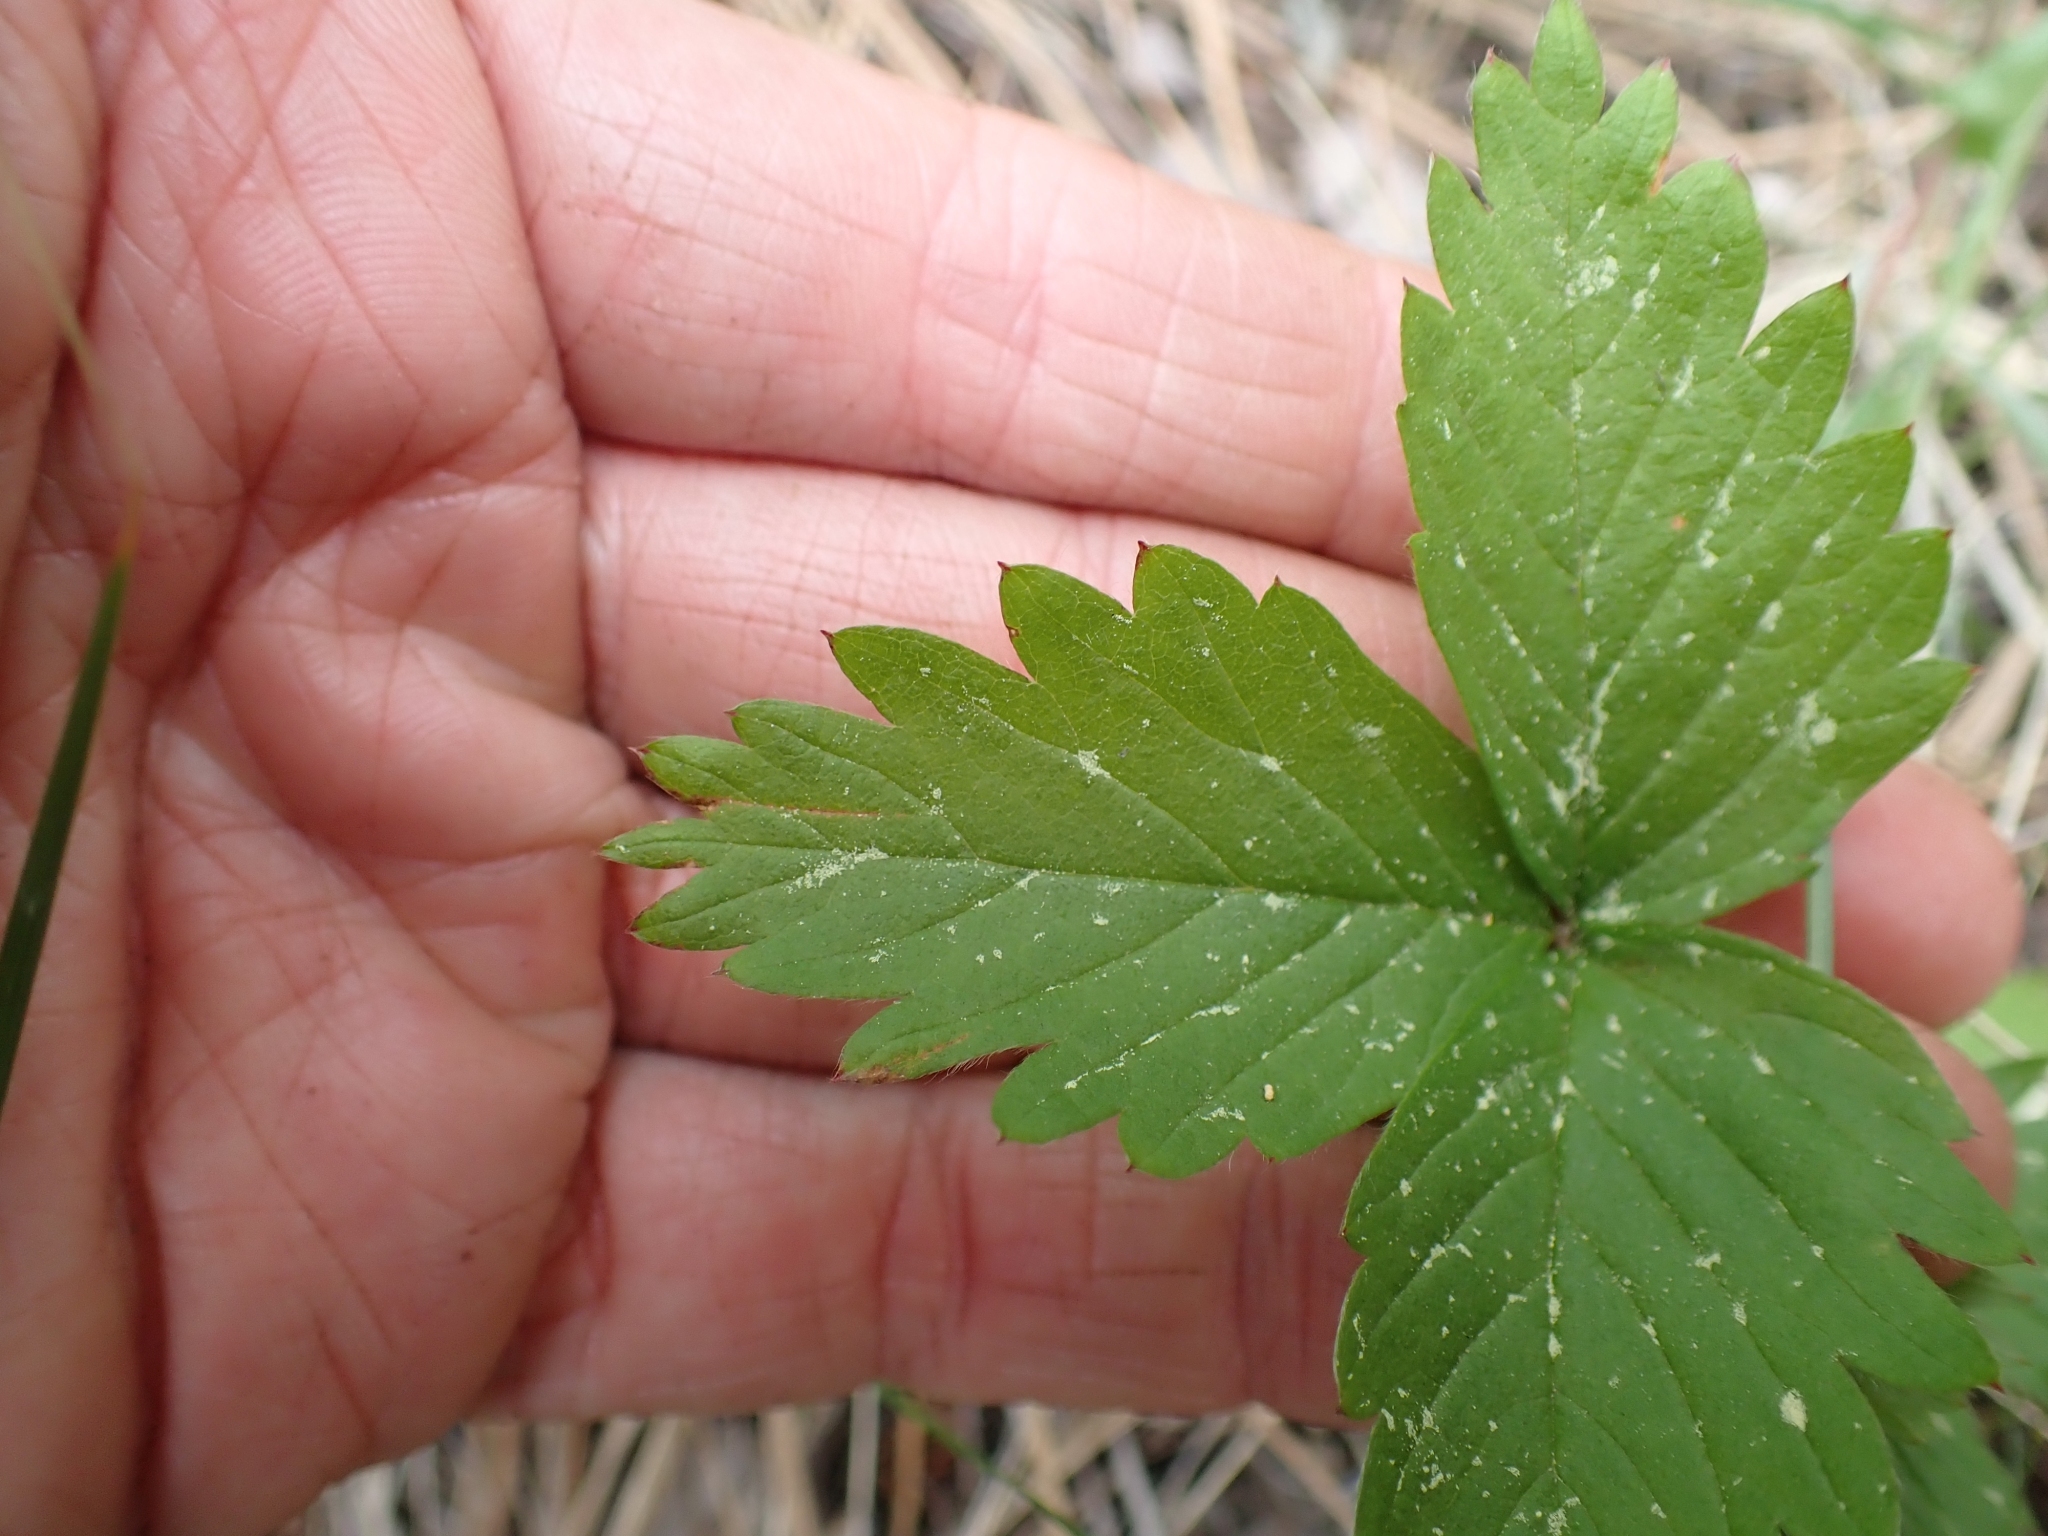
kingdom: Plantae
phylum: Tracheophyta
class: Magnoliopsida
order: Rosales
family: Rosaceae
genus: Fragaria
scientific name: Fragaria vesca
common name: Wild strawberry
